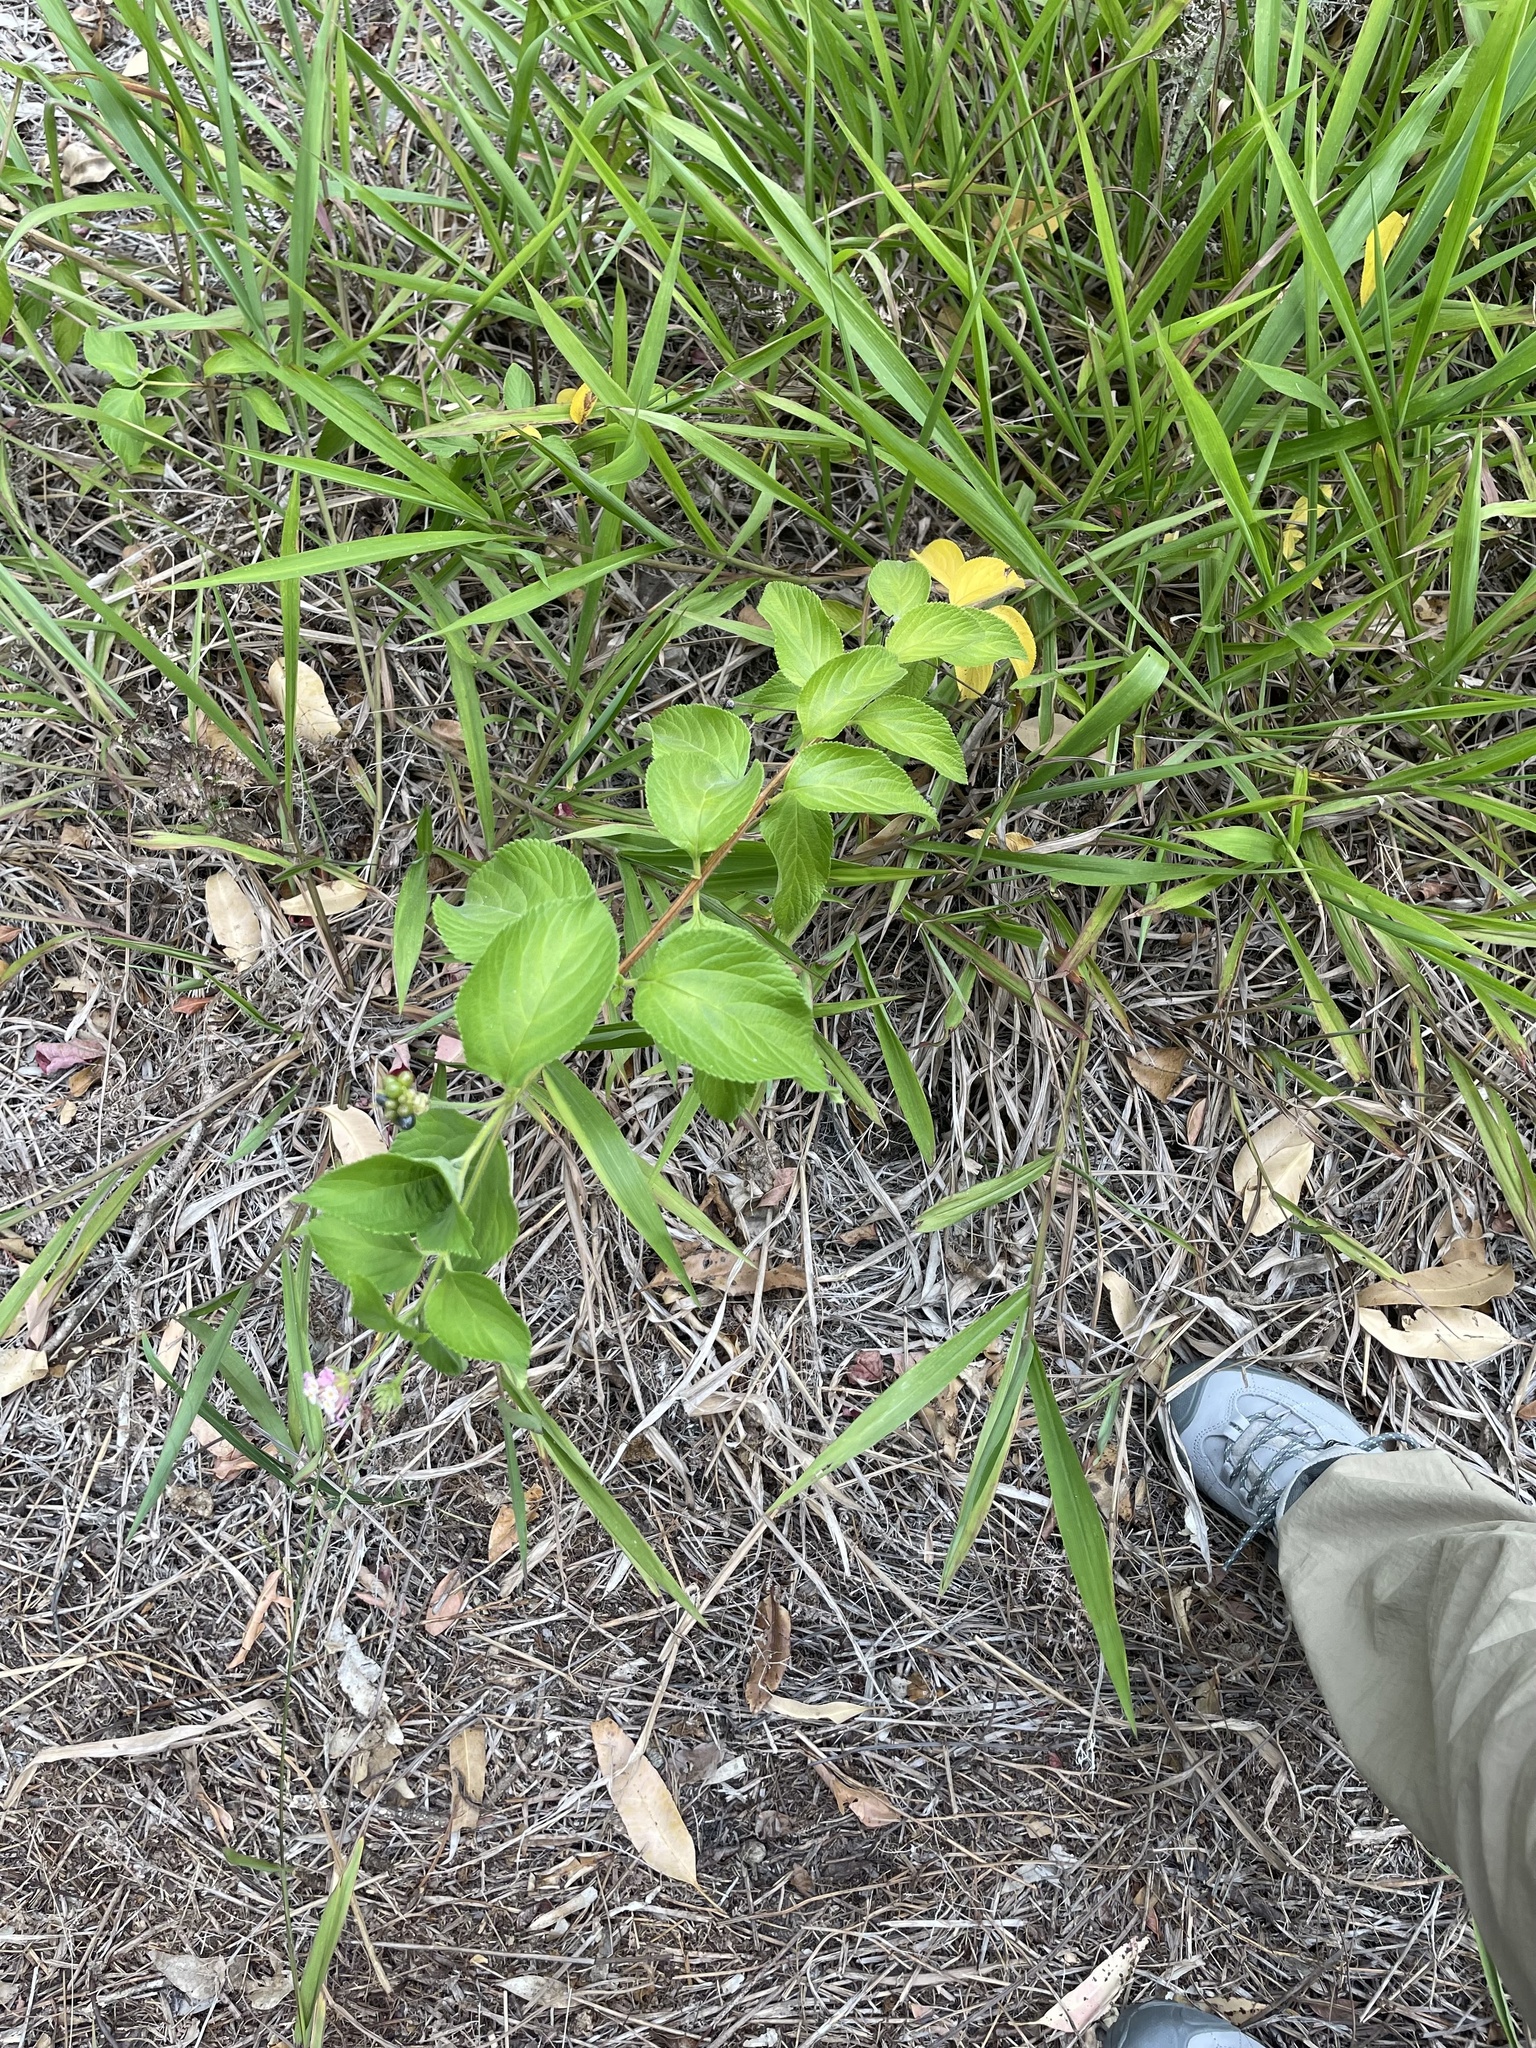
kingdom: Plantae
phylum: Tracheophyta
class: Magnoliopsida
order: Lamiales
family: Verbenaceae
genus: Lantana
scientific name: Lantana camara
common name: Lantana
